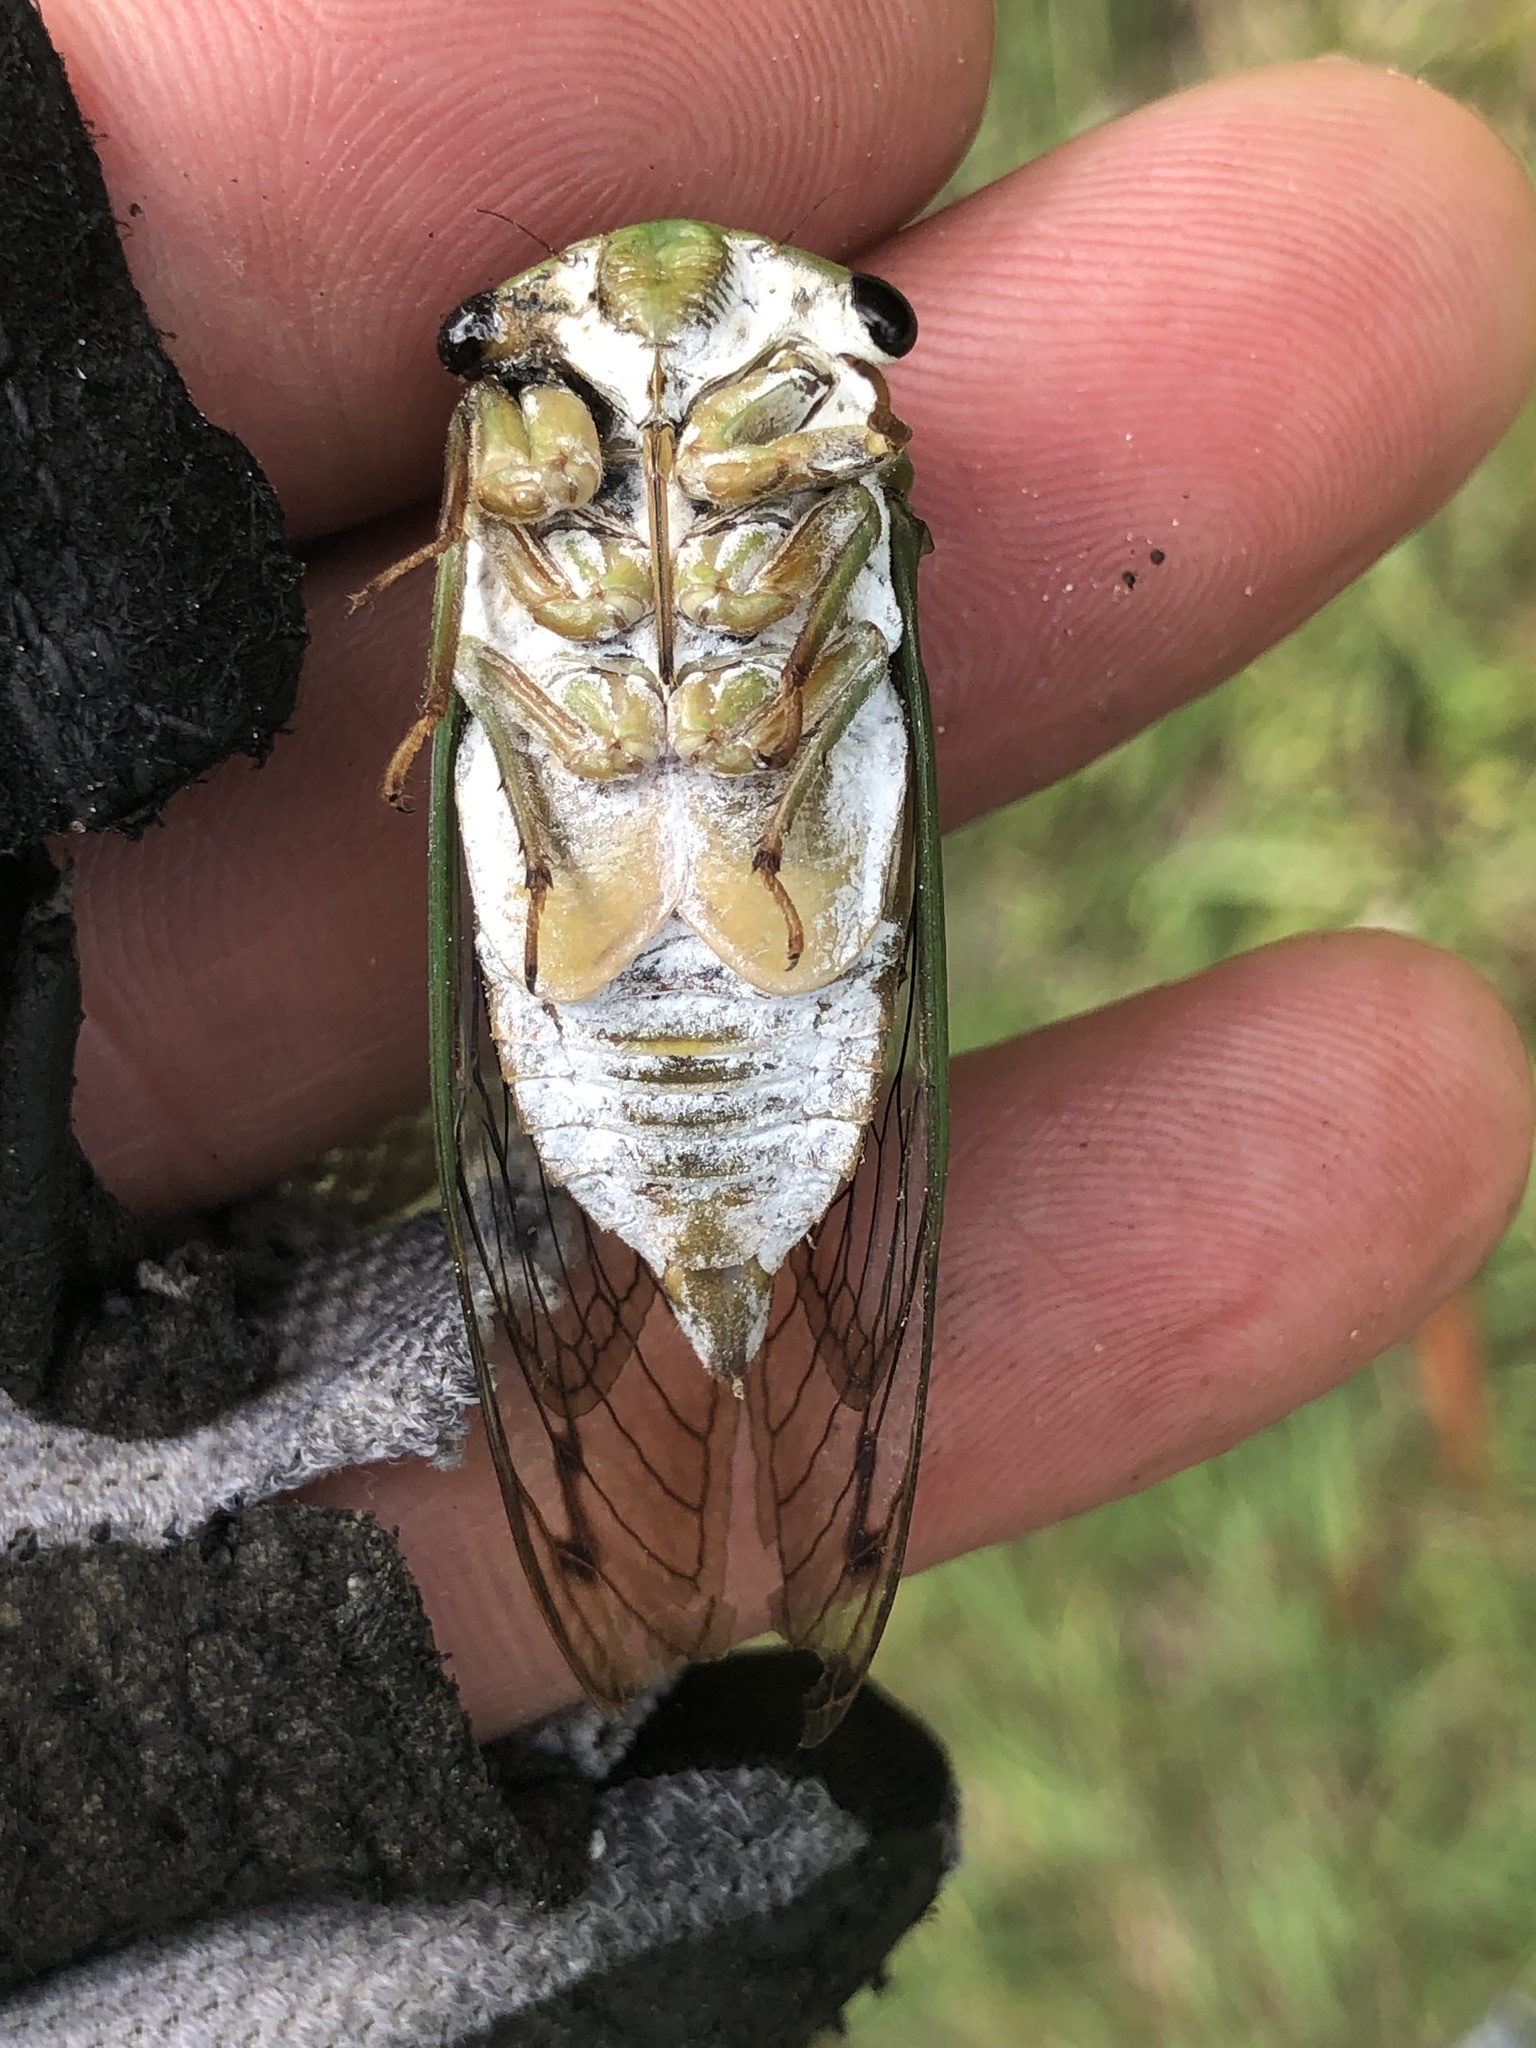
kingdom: Animalia
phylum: Arthropoda
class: Insecta
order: Hemiptera
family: Cicadidae
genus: Neotibicen
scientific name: Neotibicen superbus
